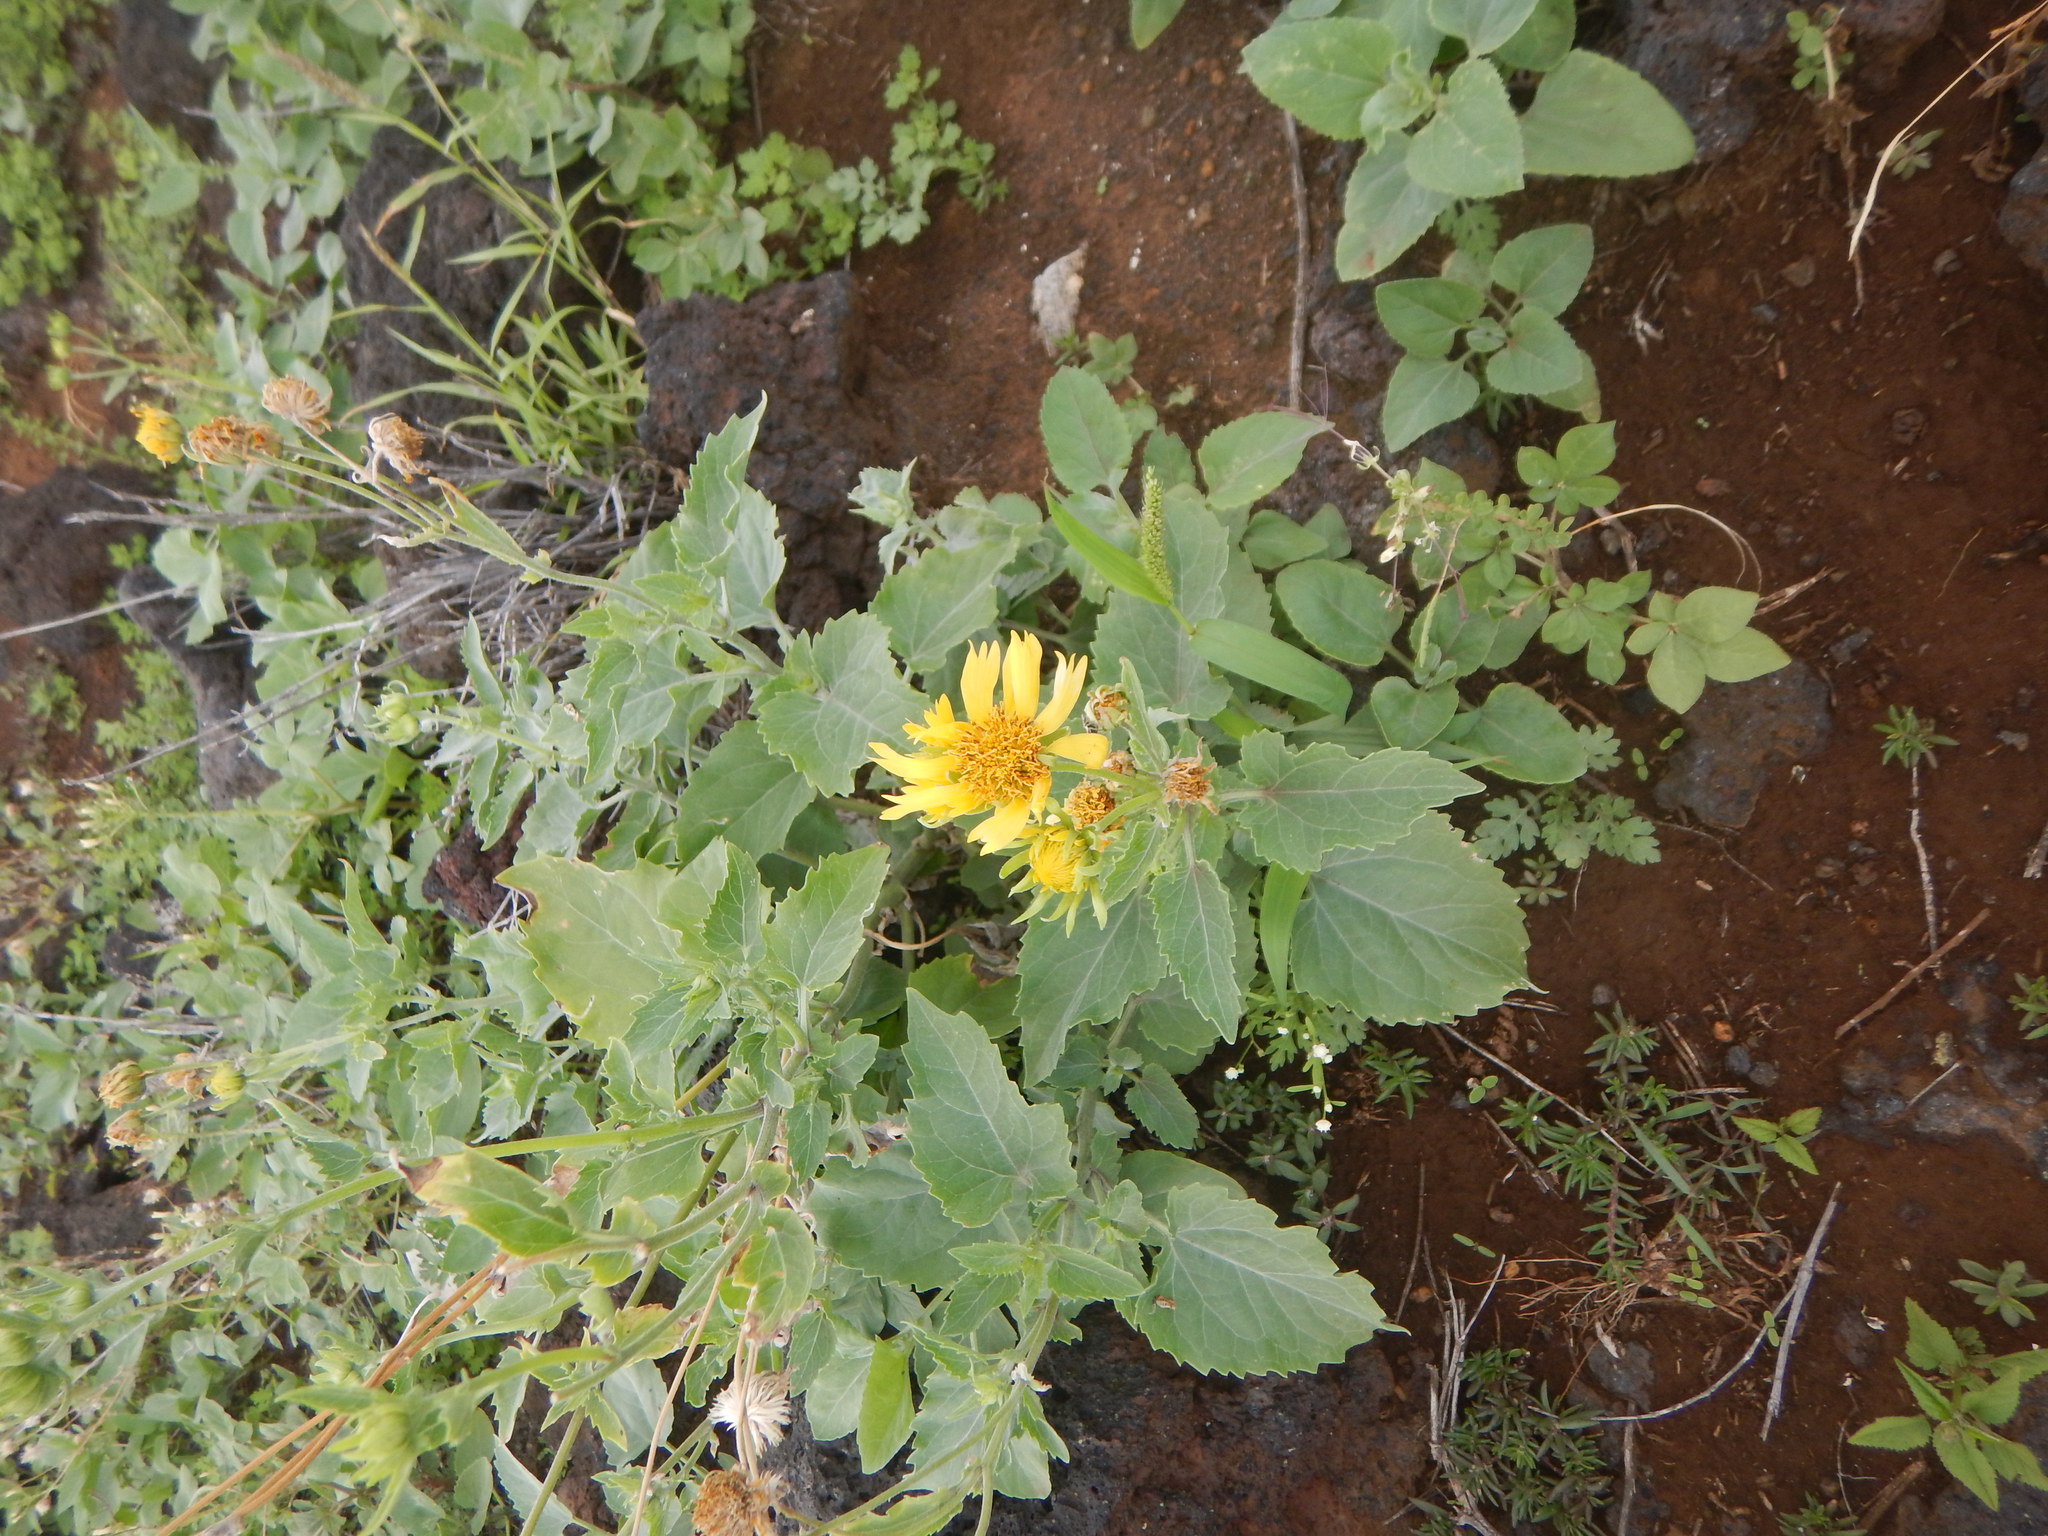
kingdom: Plantae
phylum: Tracheophyta
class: Magnoliopsida
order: Asterales
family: Asteraceae
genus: Verbesina
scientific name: Verbesina encelioides
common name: Golden crownbeard
